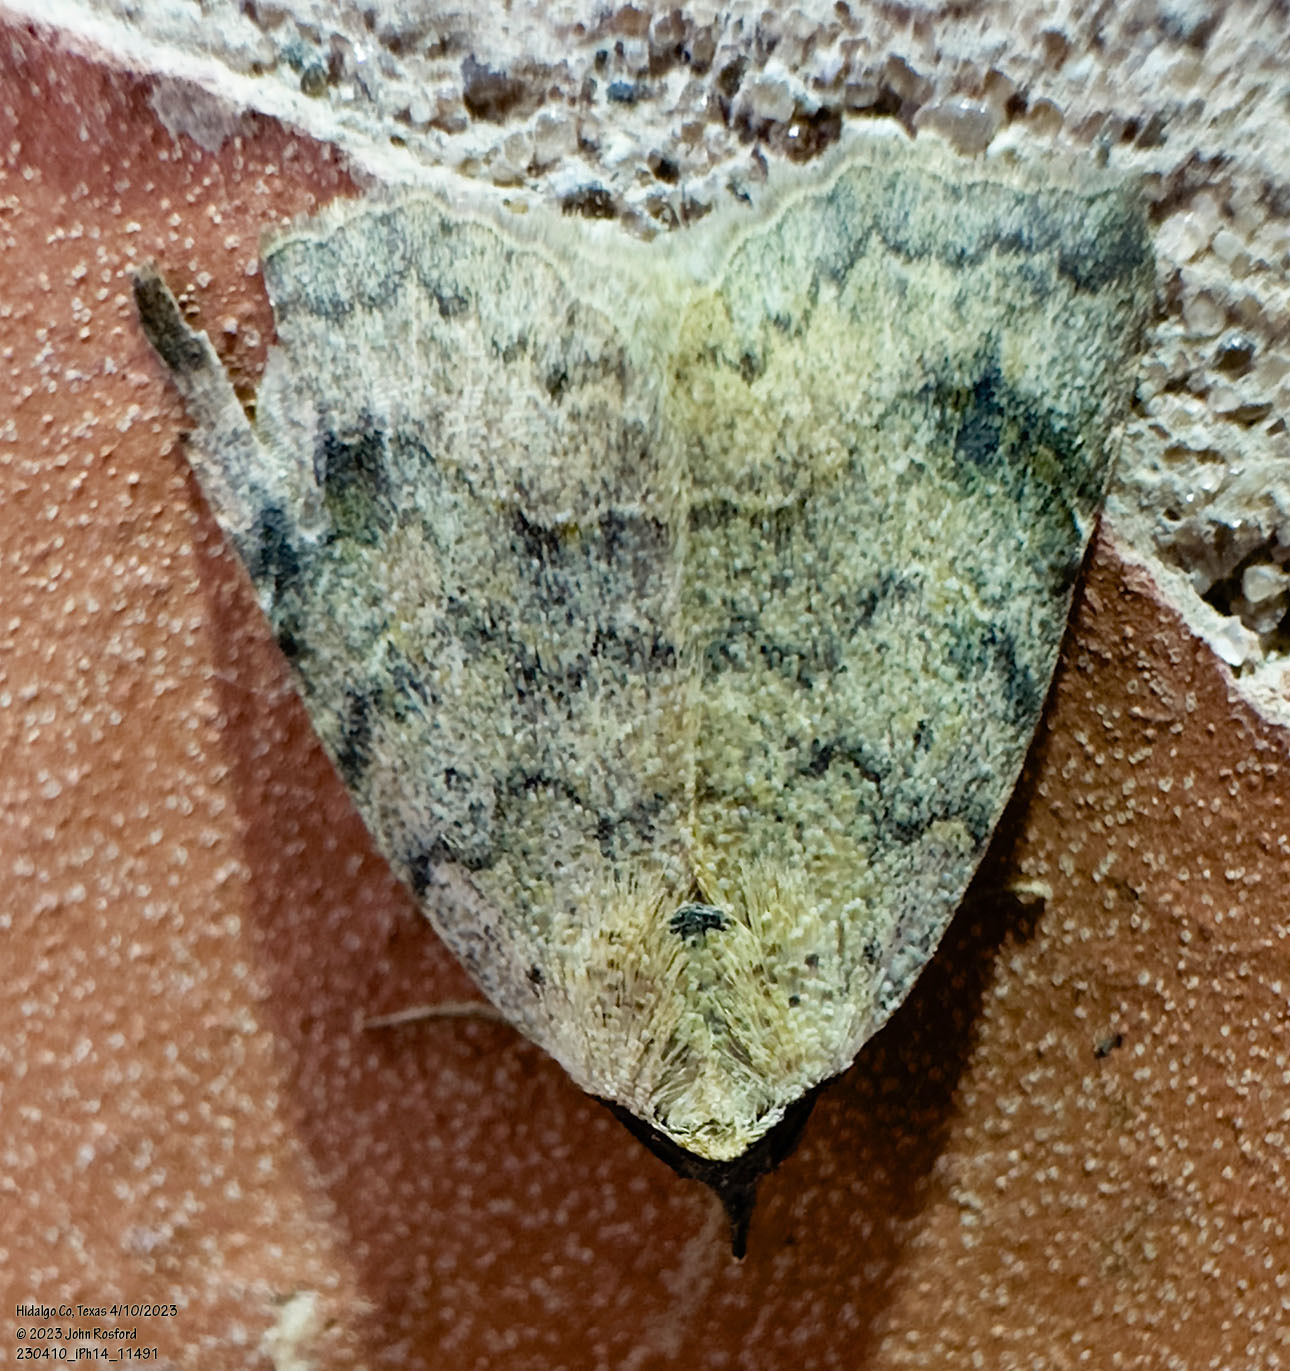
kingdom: Animalia
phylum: Arthropoda
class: Insecta
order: Lepidoptera
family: Erebidae
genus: Isogona
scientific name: Isogona texana
